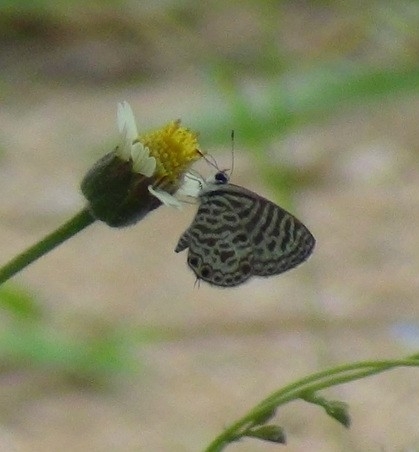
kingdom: Animalia
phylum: Arthropoda
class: Insecta
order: Lepidoptera
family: Lycaenidae
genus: Leptotes
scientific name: Leptotes plinius
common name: Zebra blue
